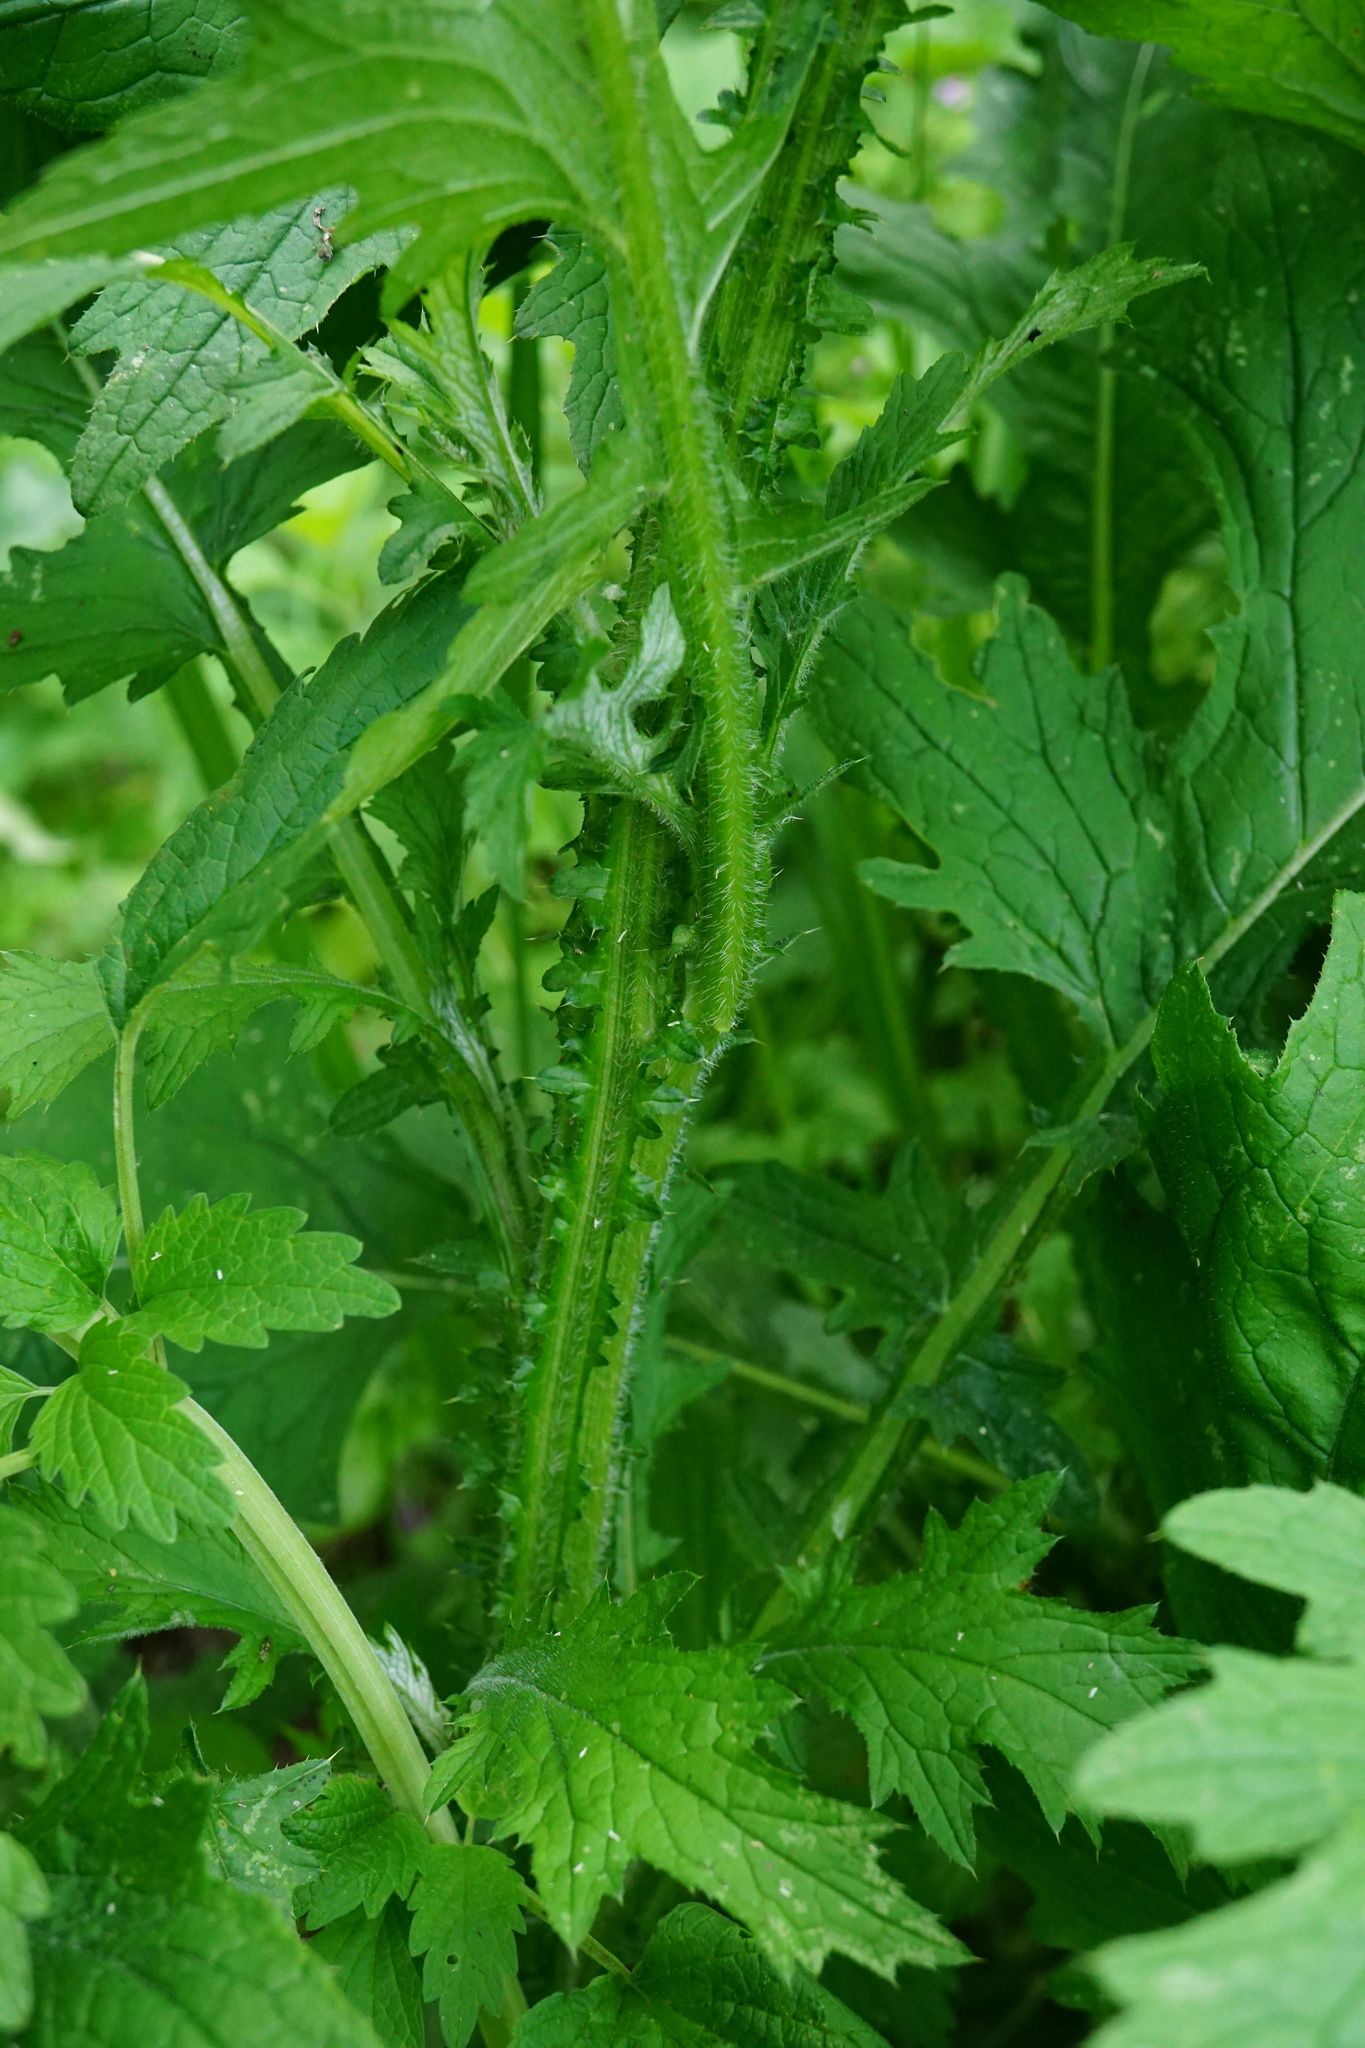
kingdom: Plantae
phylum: Tracheophyta
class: Magnoliopsida
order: Asterales
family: Asteraceae
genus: Carduus
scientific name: Carduus crispus
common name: Welted thistle
